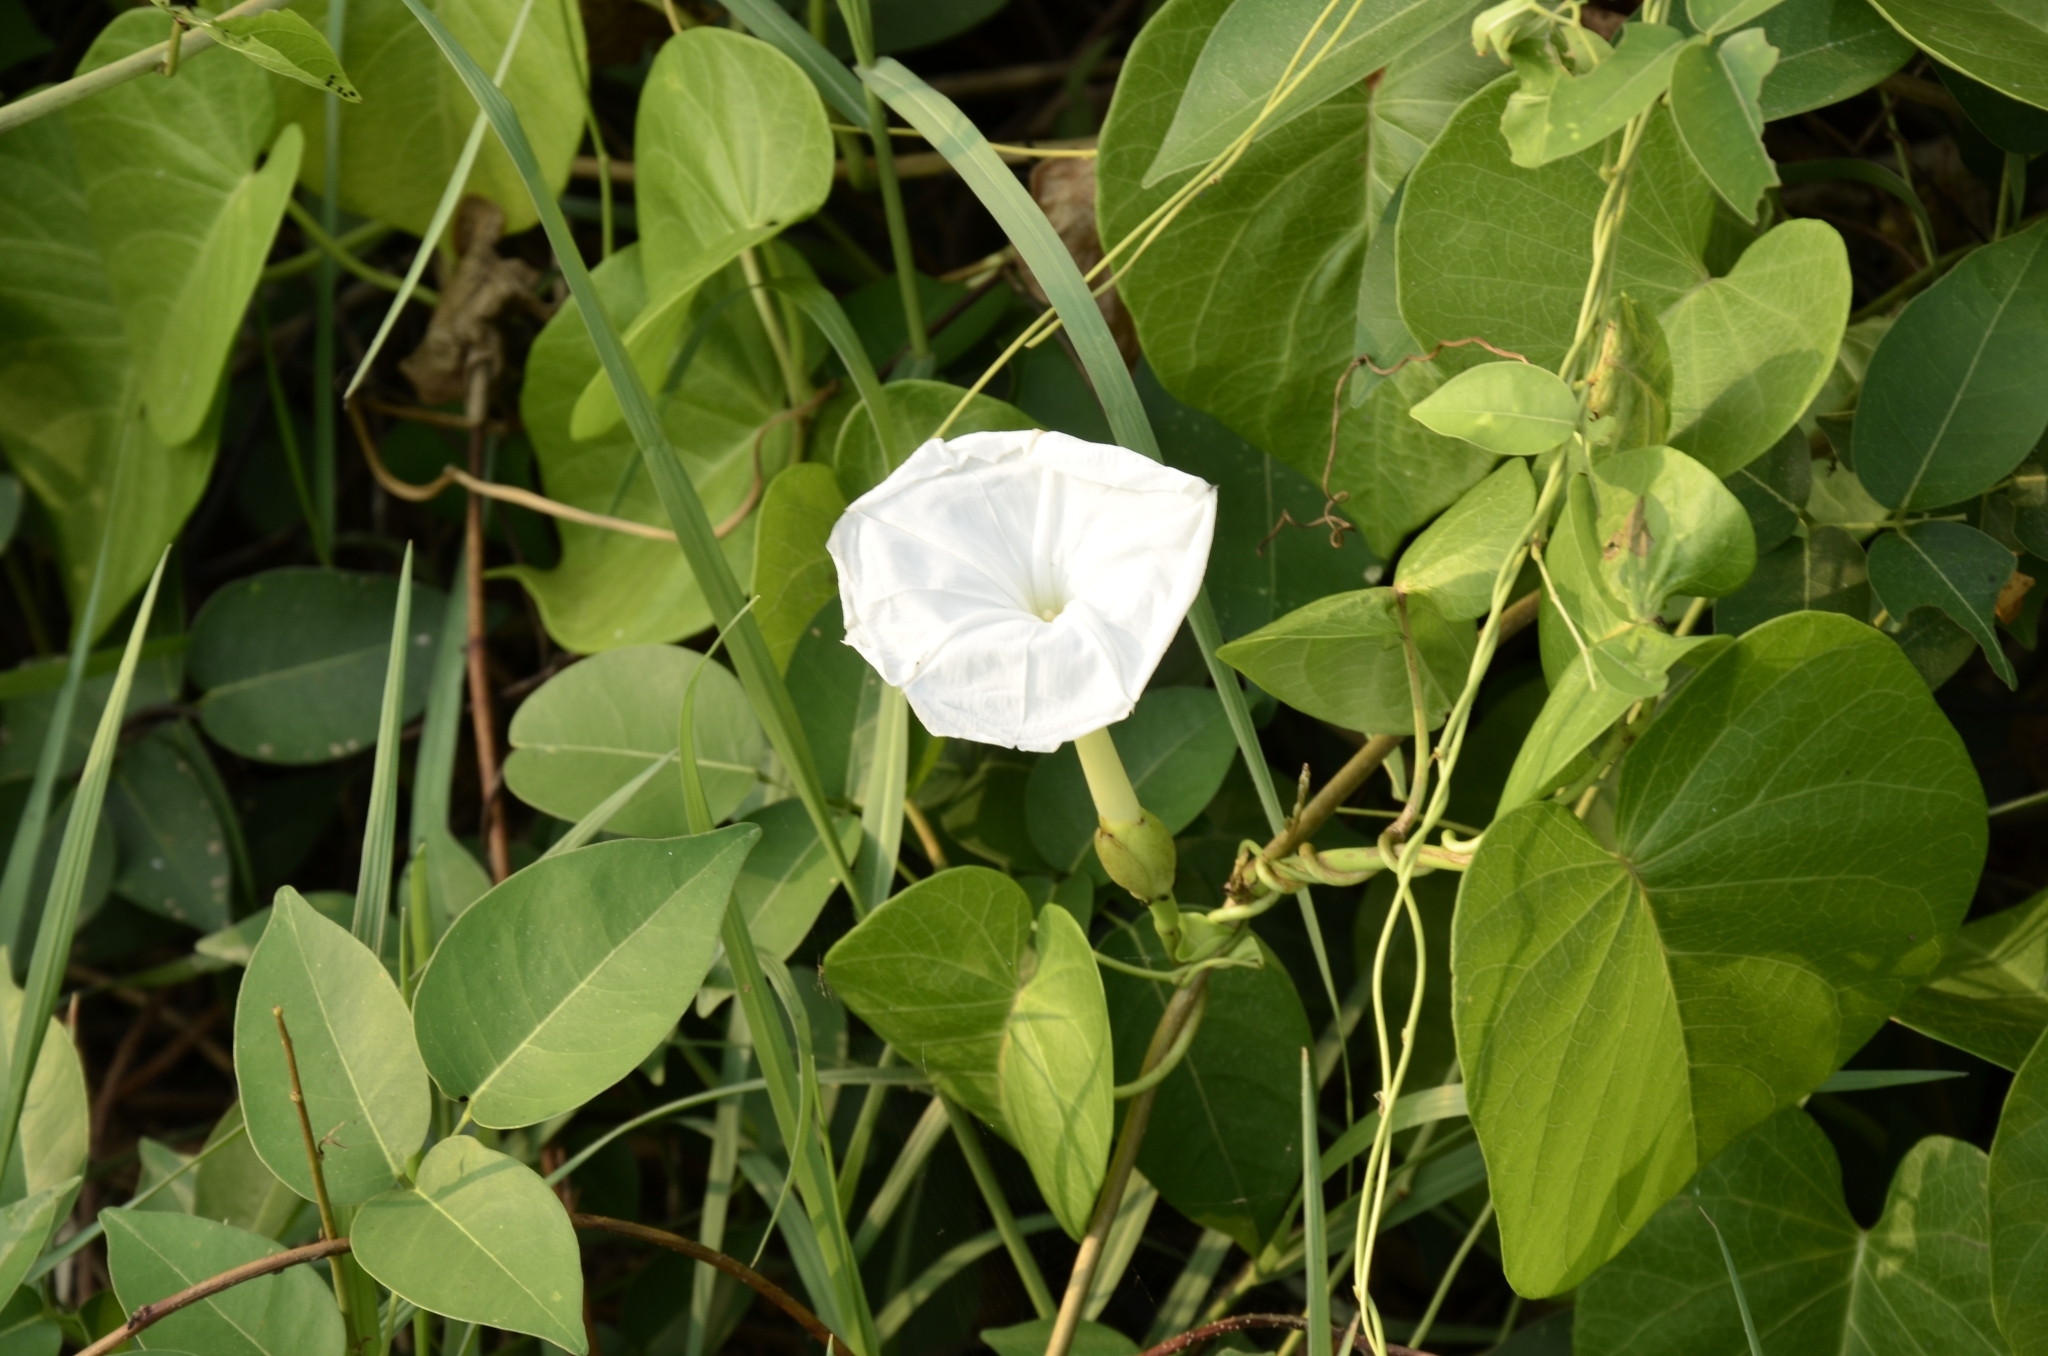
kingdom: Plantae
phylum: Tracheophyta
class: Magnoliopsida
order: Solanales
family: Convolvulaceae
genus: Ipomoea
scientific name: Ipomoea violacea
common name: Beach moonflower
